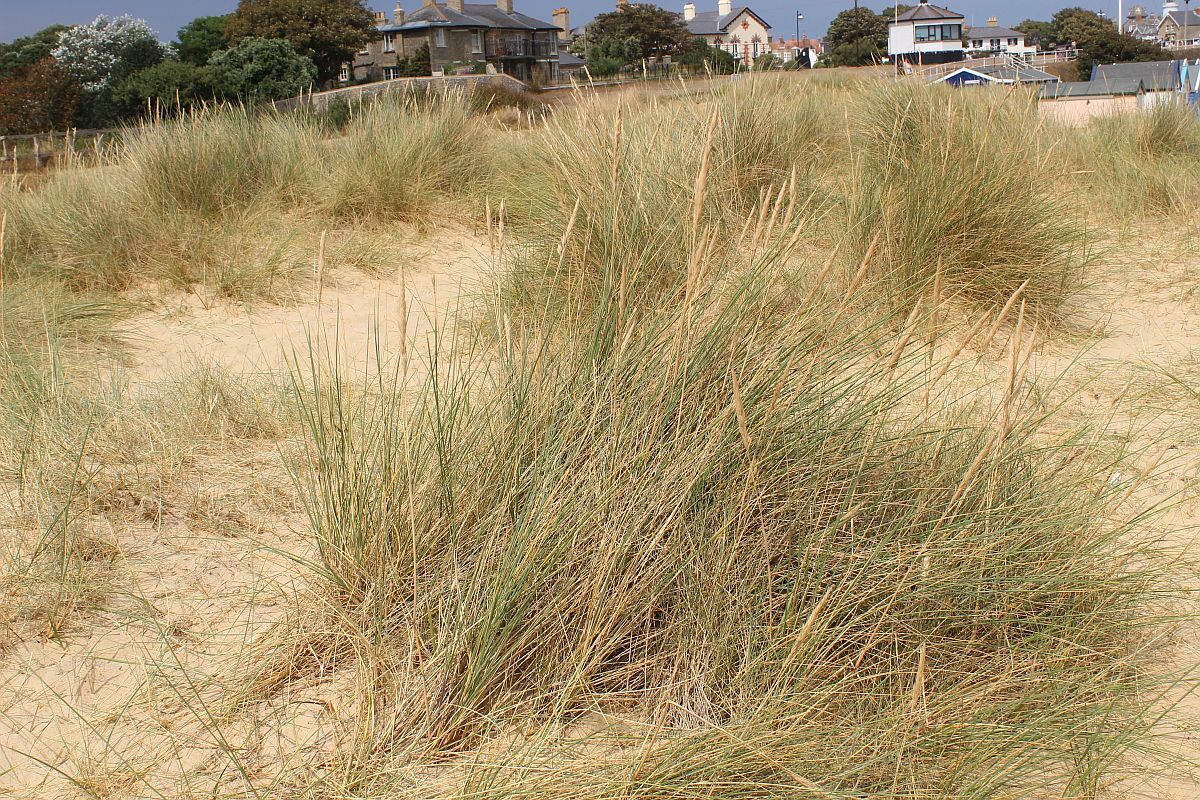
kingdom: Plantae
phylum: Tracheophyta
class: Liliopsida
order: Poales
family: Poaceae
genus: Calamagrostis
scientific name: Calamagrostis arenaria
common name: European beachgrass
